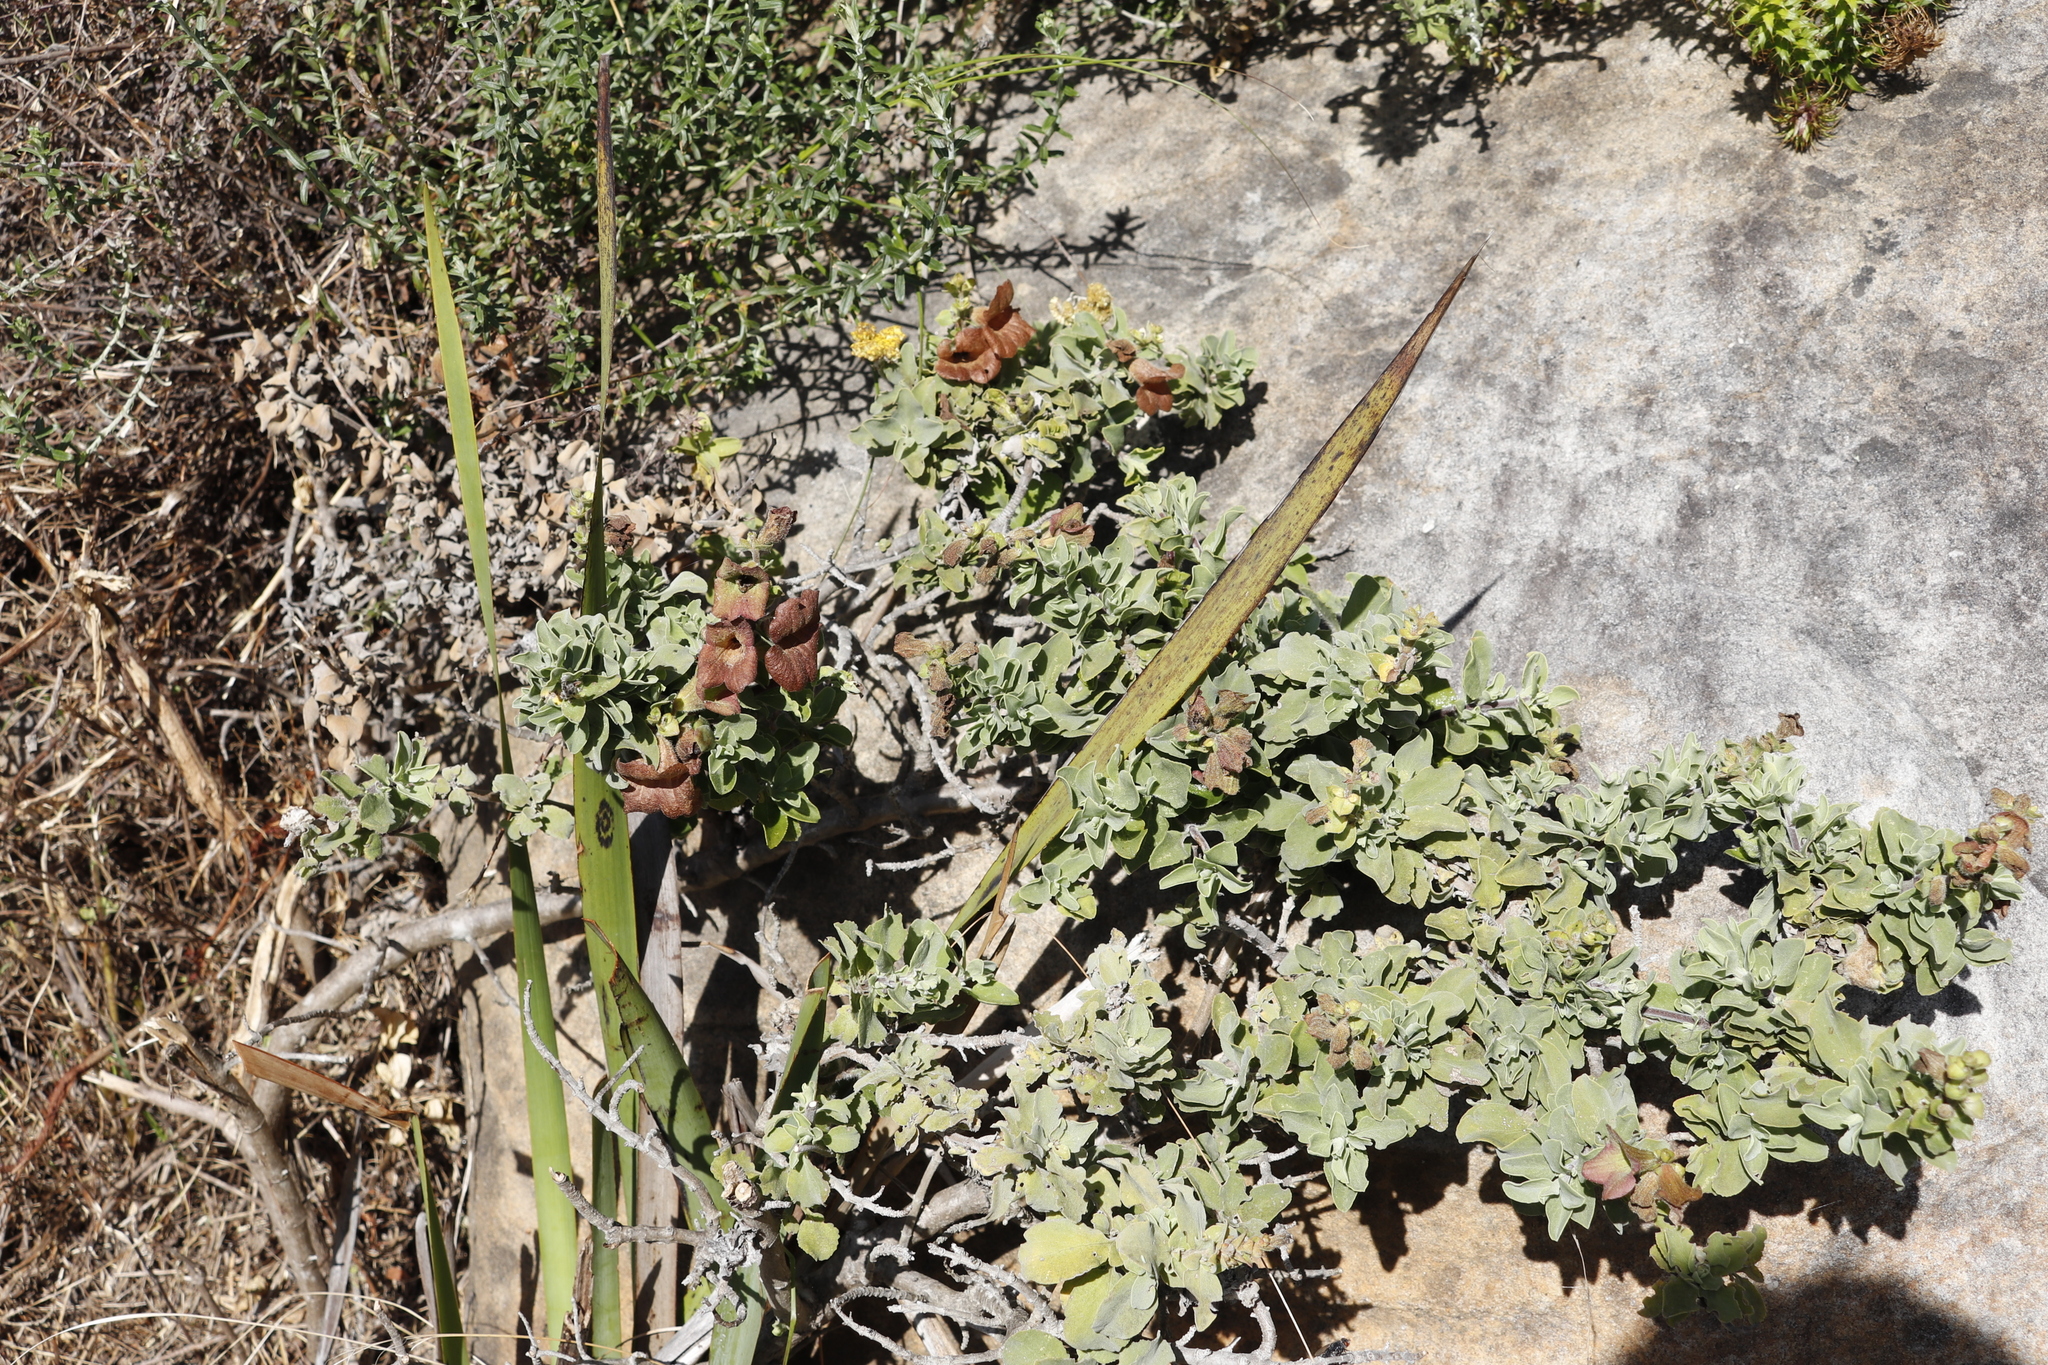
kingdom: Plantae
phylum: Tracheophyta
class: Magnoliopsida
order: Lamiales
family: Lamiaceae
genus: Salvia
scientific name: Salvia aurea
